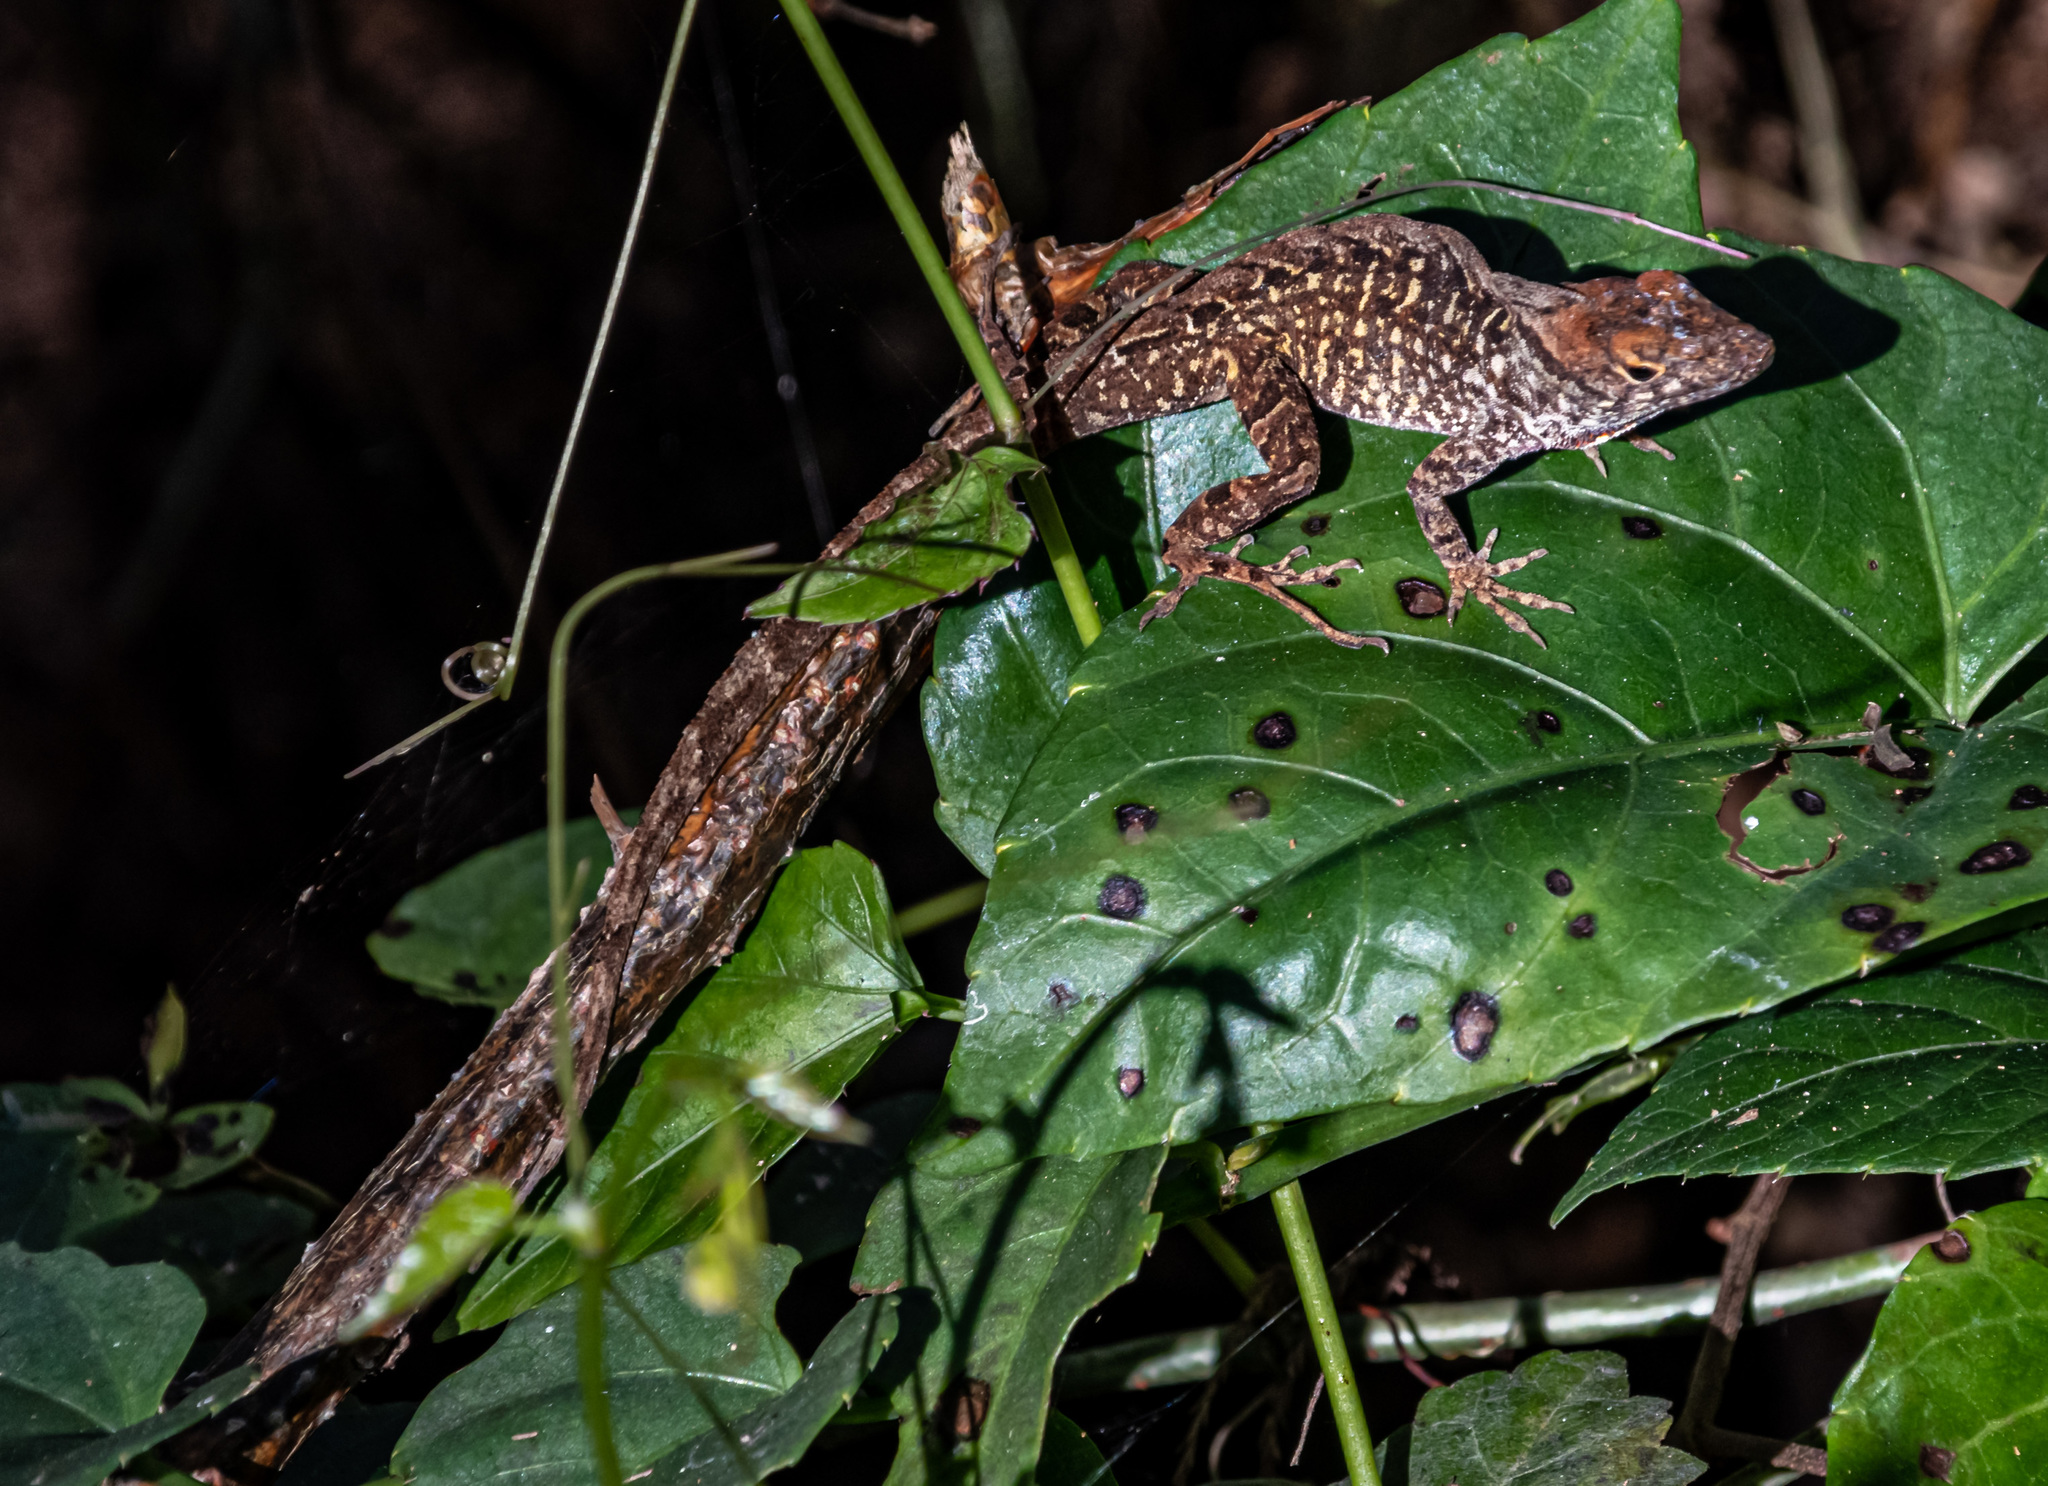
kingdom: Animalia
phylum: Chordata
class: Squamata
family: Dactyloidae
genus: Anolis
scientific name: Anolis sagrei
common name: Brown anole
